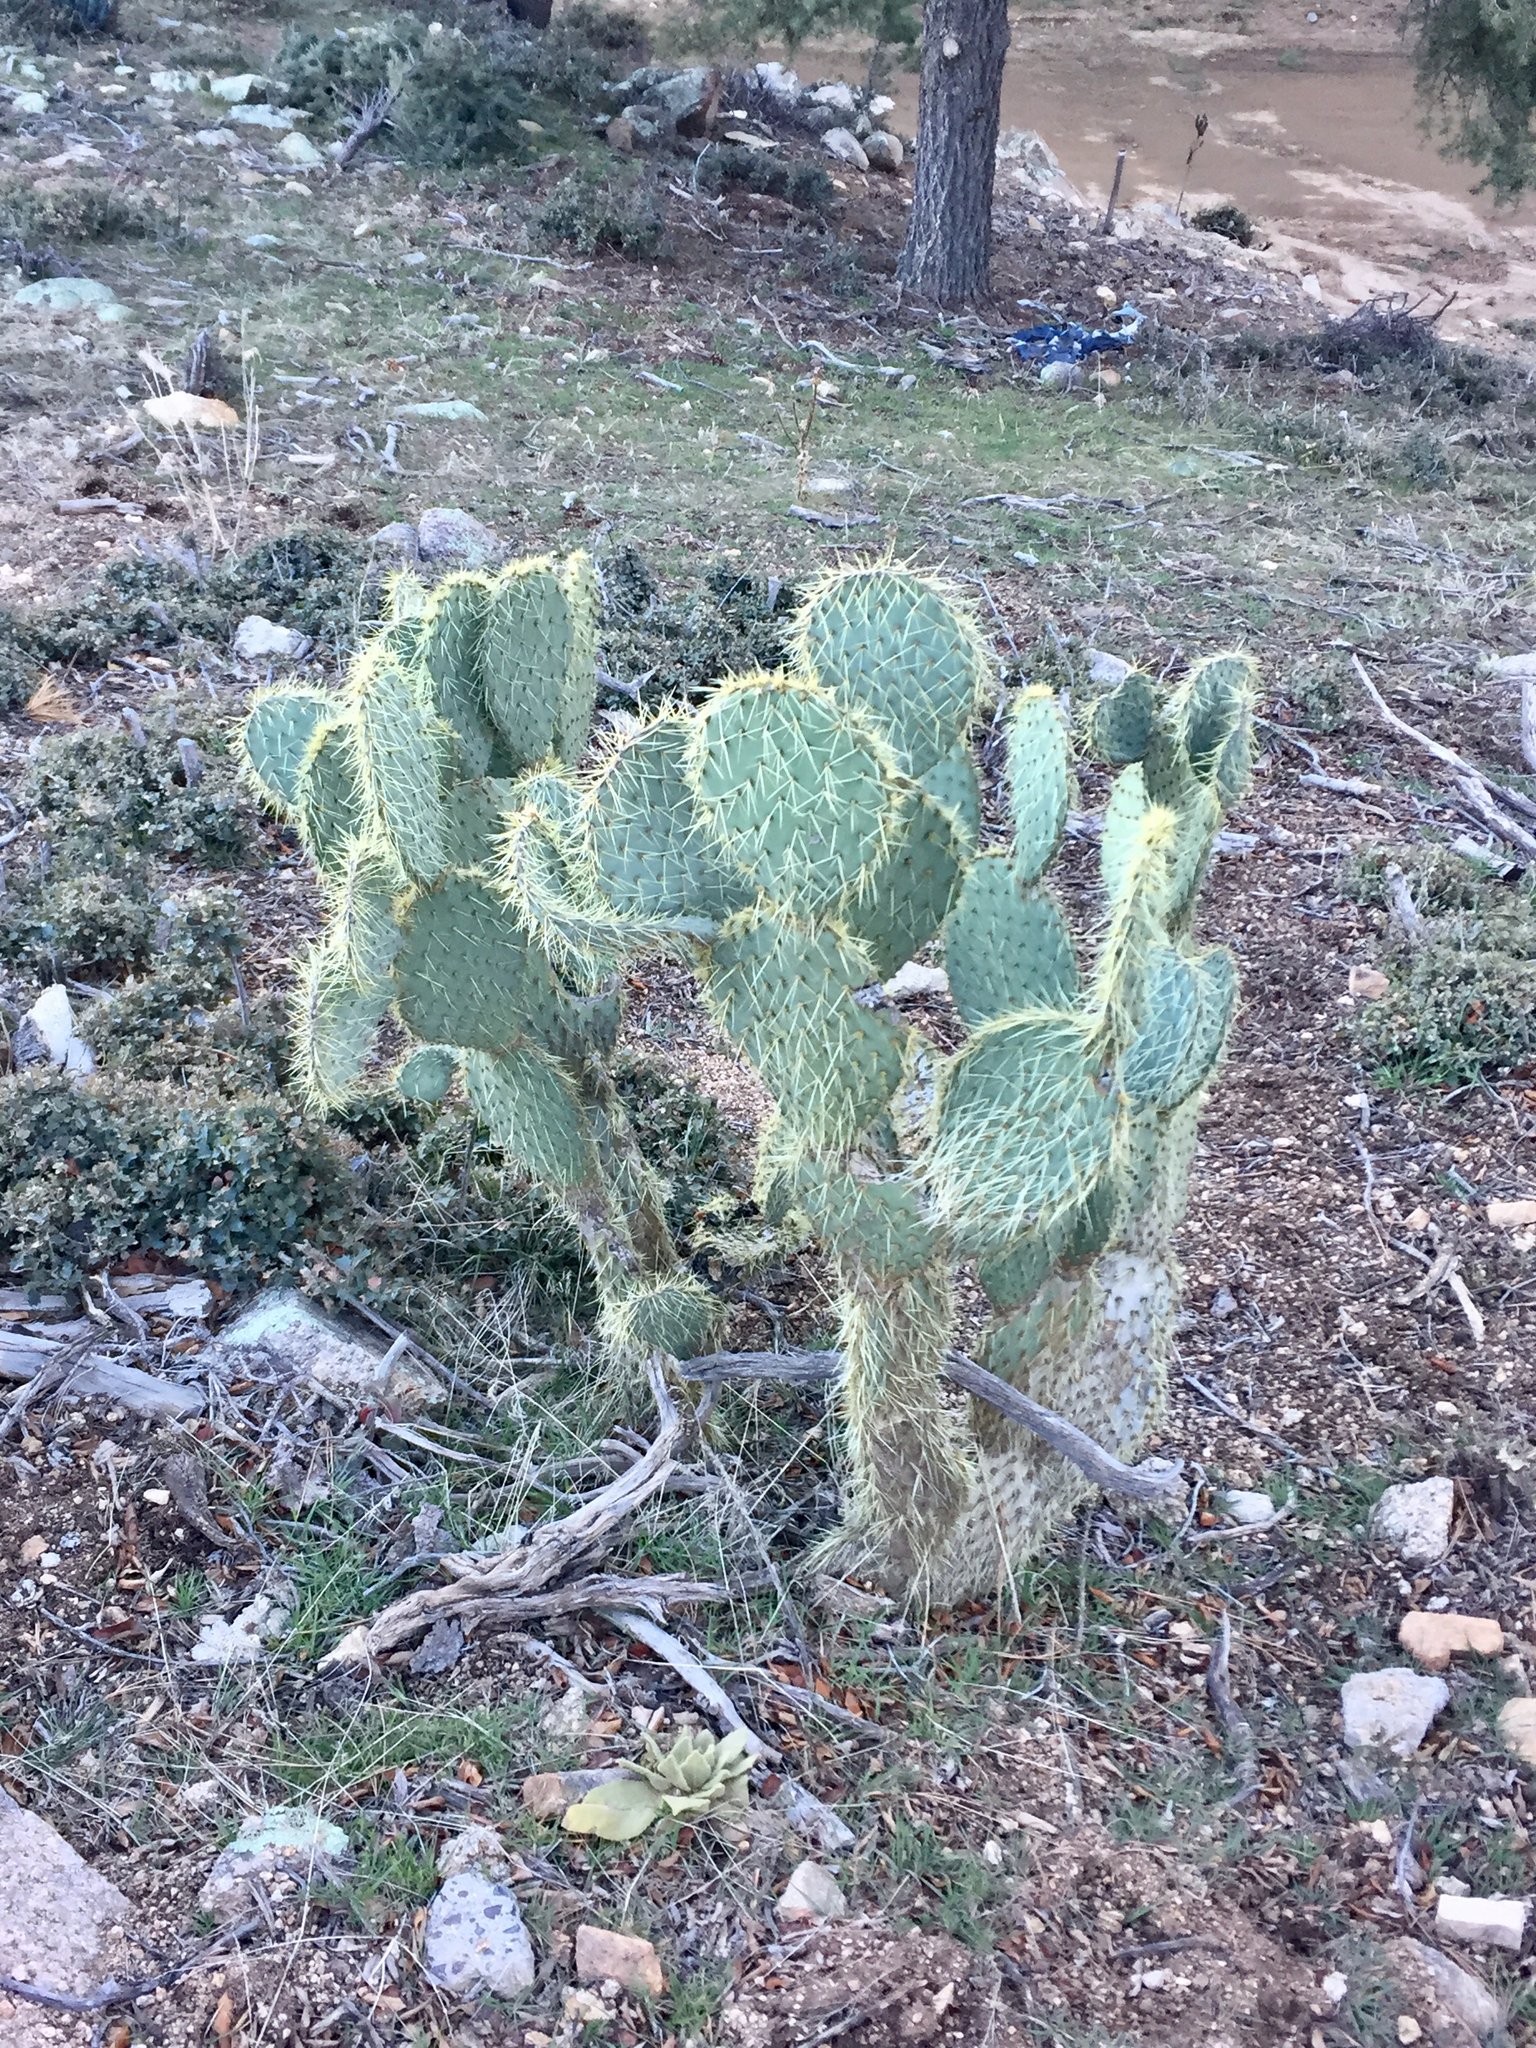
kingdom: Plantae
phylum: Tracheophyta
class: Magnoliopsida
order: Caryophyllales
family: Cactaceae
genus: Opuntia
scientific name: Opuntia polyacantha
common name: Plains prickly-pear
